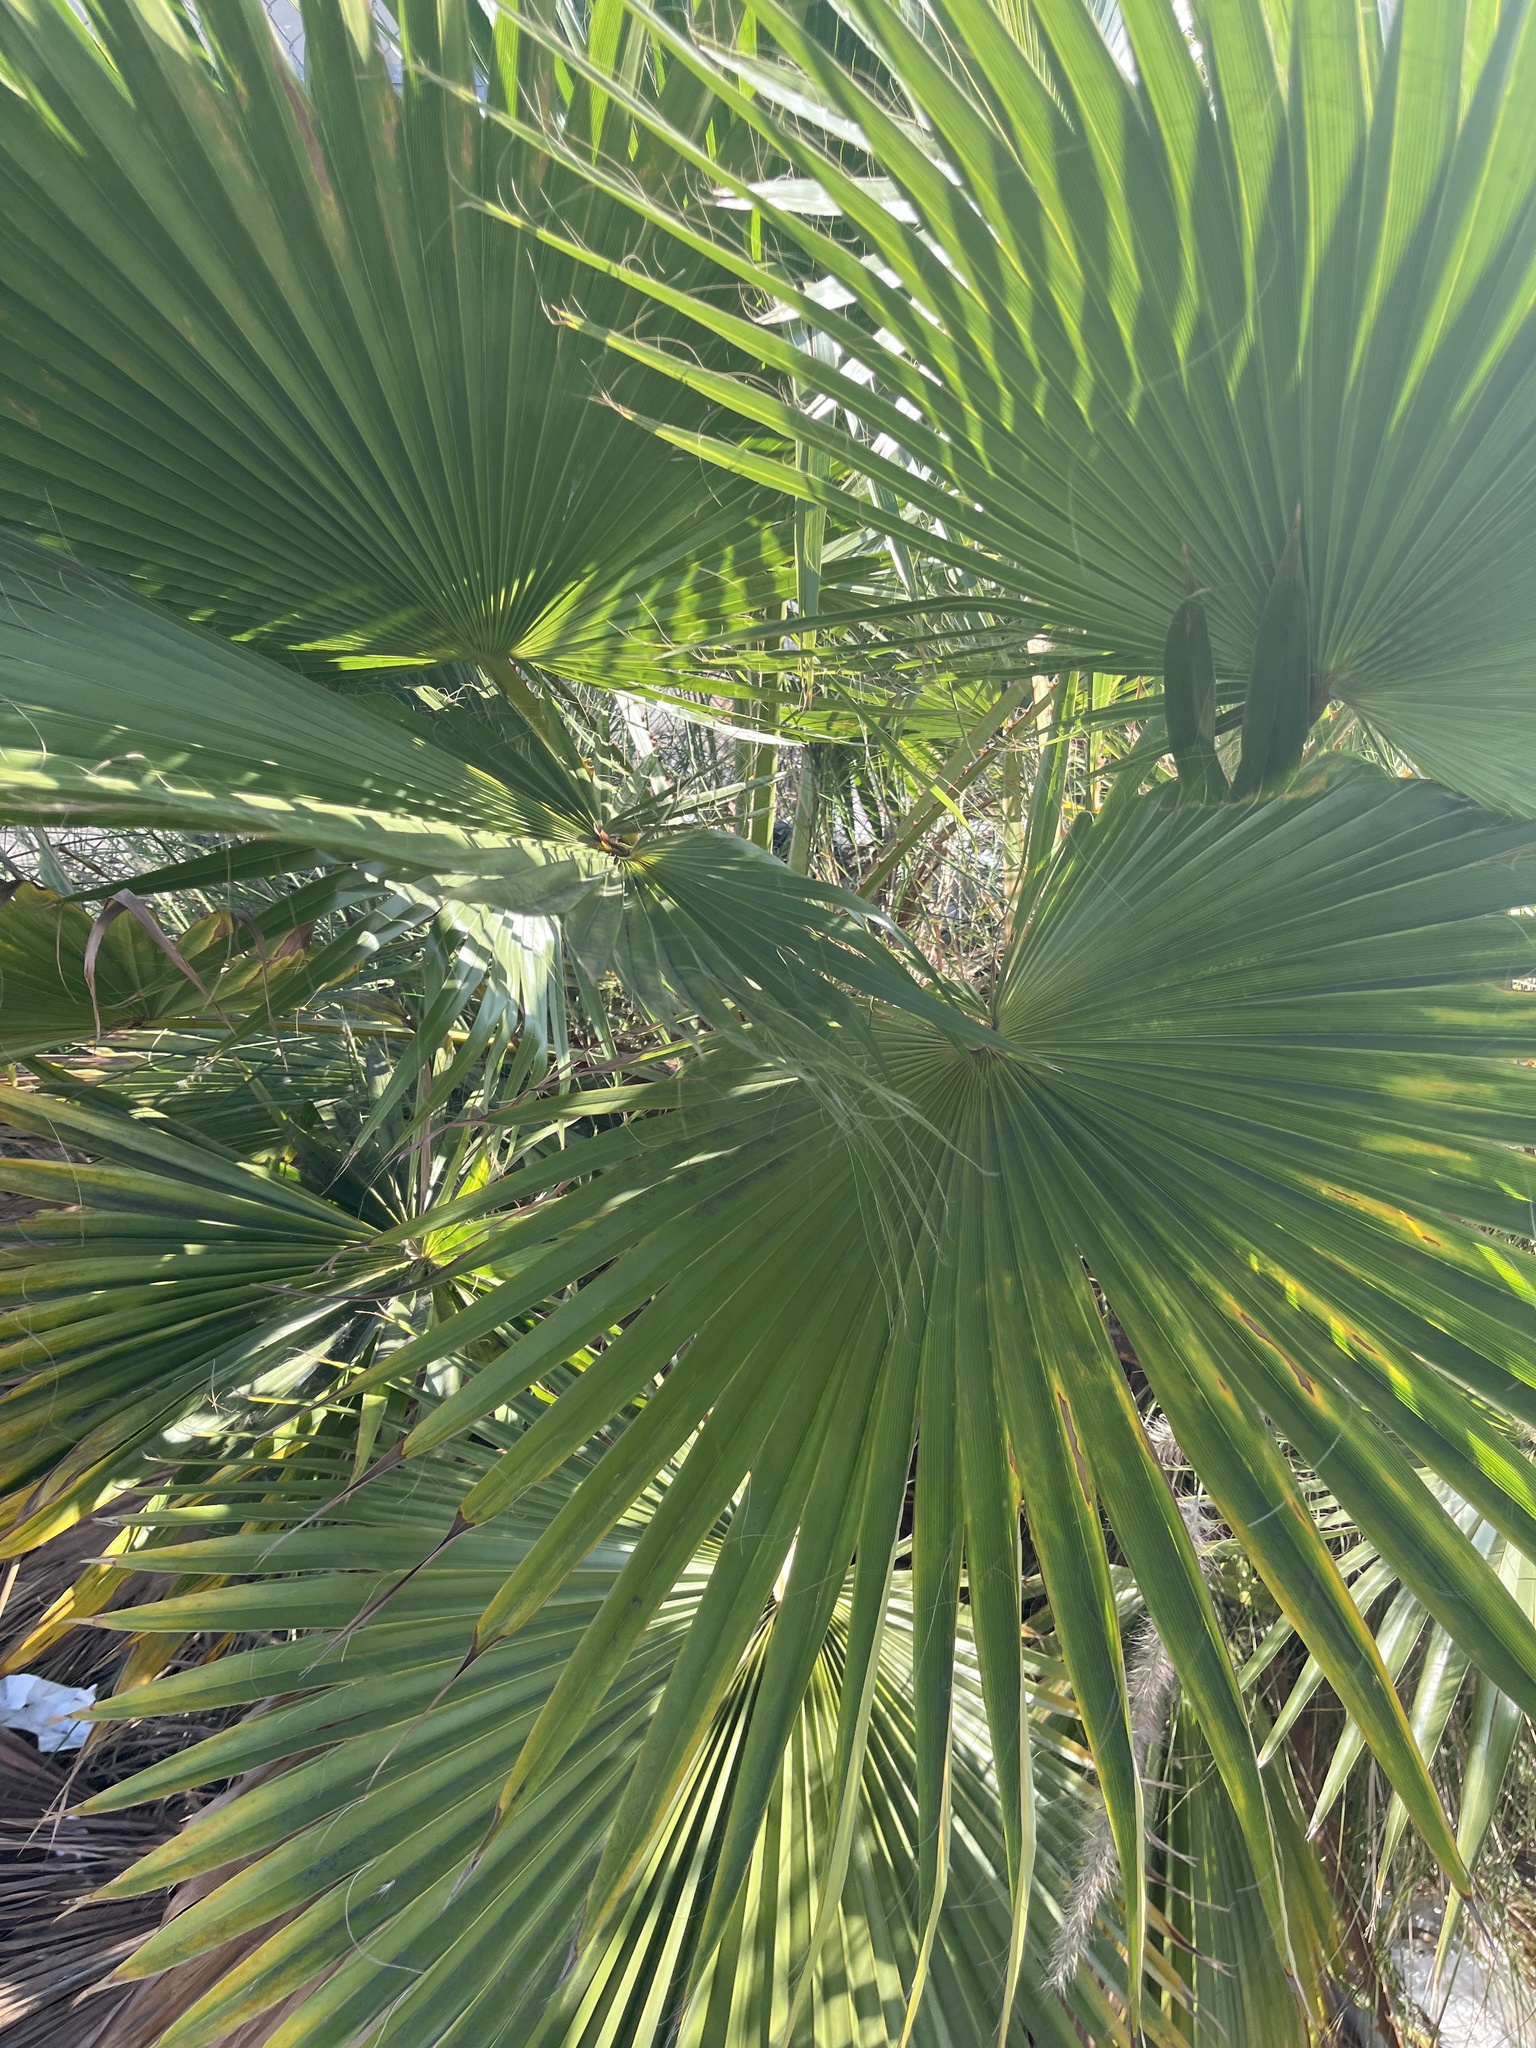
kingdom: Plantae
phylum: Tracheophyta
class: Liliopsida
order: Arecales
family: Arecaceae
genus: Washingtonia
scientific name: Washingtonia robusta
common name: Mexican fan palm
